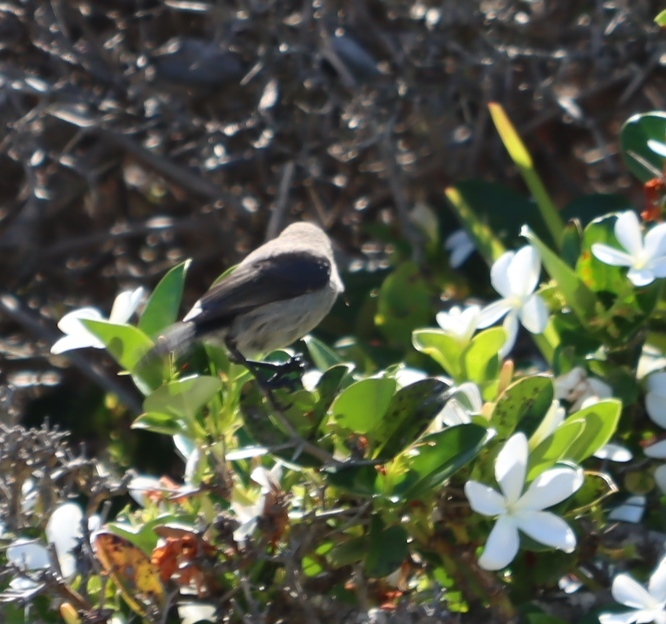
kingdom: Animalia
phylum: Chordata
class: Aves
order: Passeriformes
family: Nectariniidae
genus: Cinnyris
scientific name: Cinnyris chalybeus
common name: Southern double-collared sunbird
